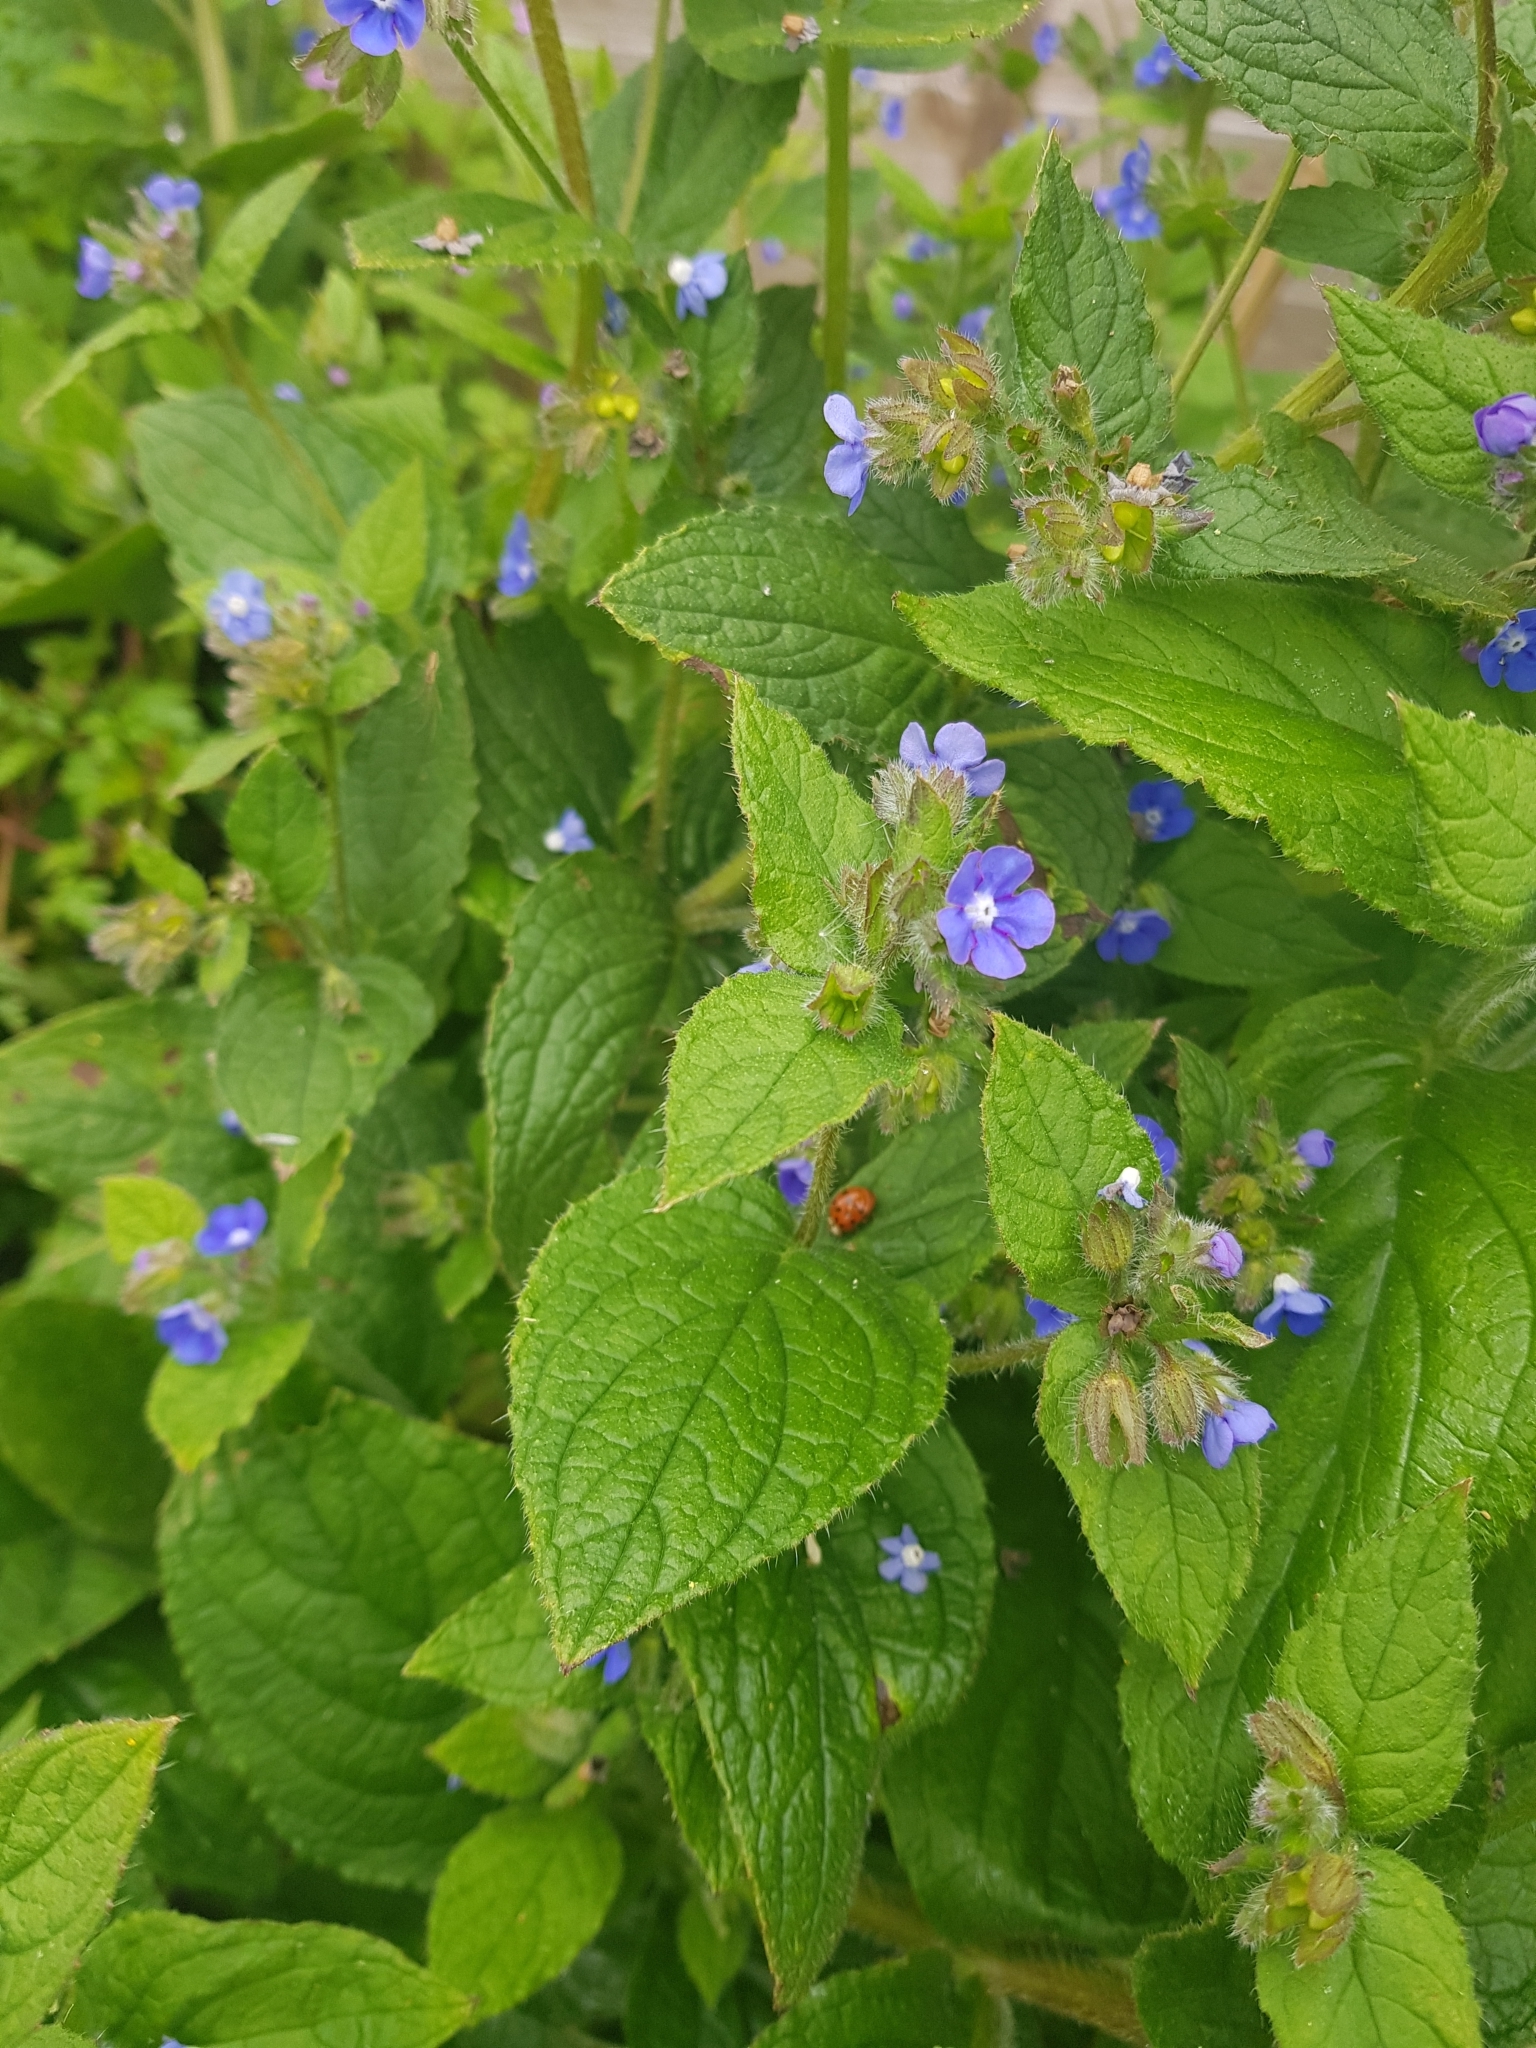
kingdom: Animalia
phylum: Arthropoda
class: Insecta
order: Coleoptera
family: Coccinellidae
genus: Harmonia
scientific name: Harmonia axyridis
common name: Harlequin ladybird
